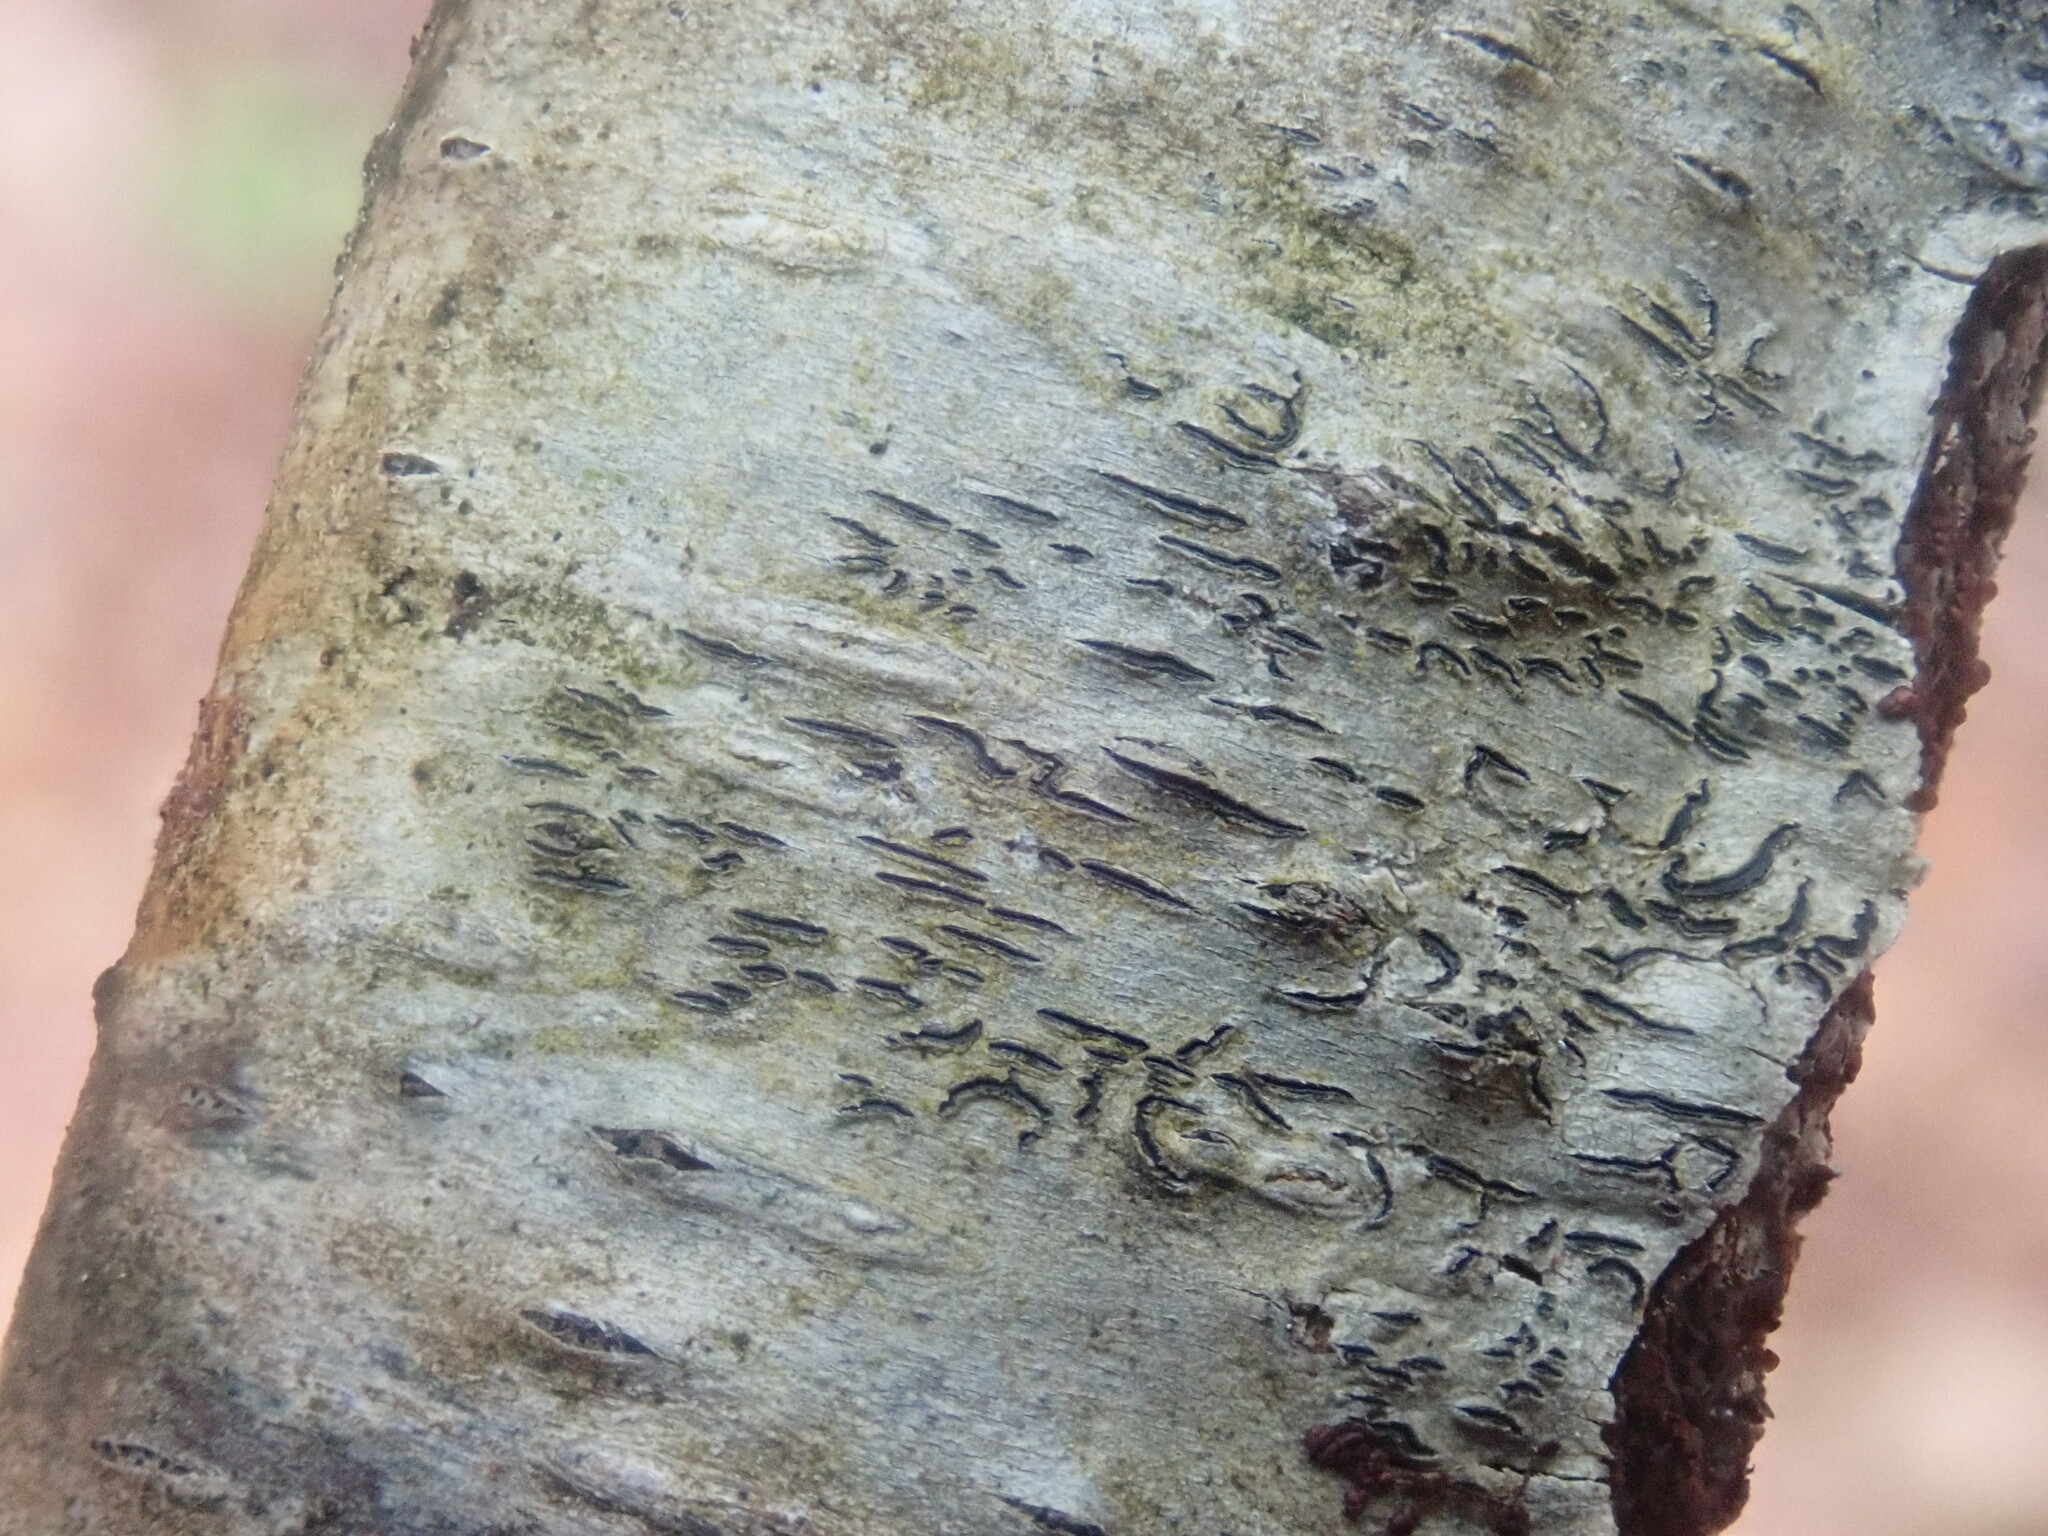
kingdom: Fungi
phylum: Ascomycota
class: Lecanoromycetes
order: Ostropales
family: Graphidaceae
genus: Graphis
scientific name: Graphis scripta
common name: Script lichen
